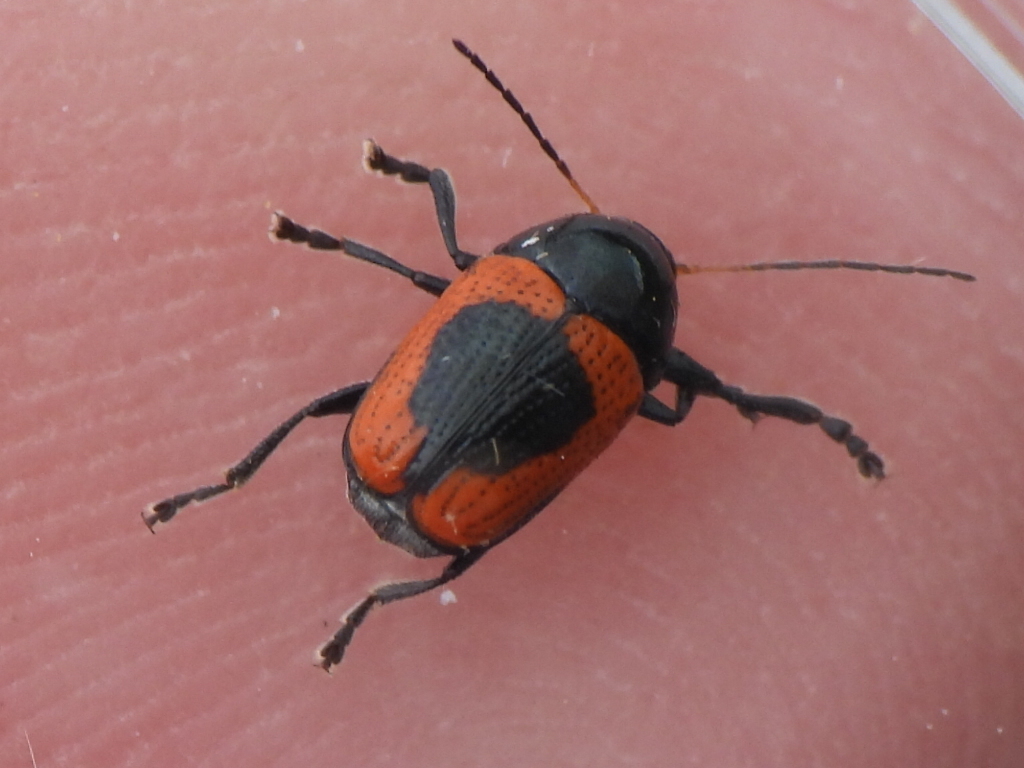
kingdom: Animalia
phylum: Arthropoda
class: Insecta
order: Coleoptera
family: Chrysomelidae
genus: Cryptocephalus
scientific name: Cryptocephalus notatus
